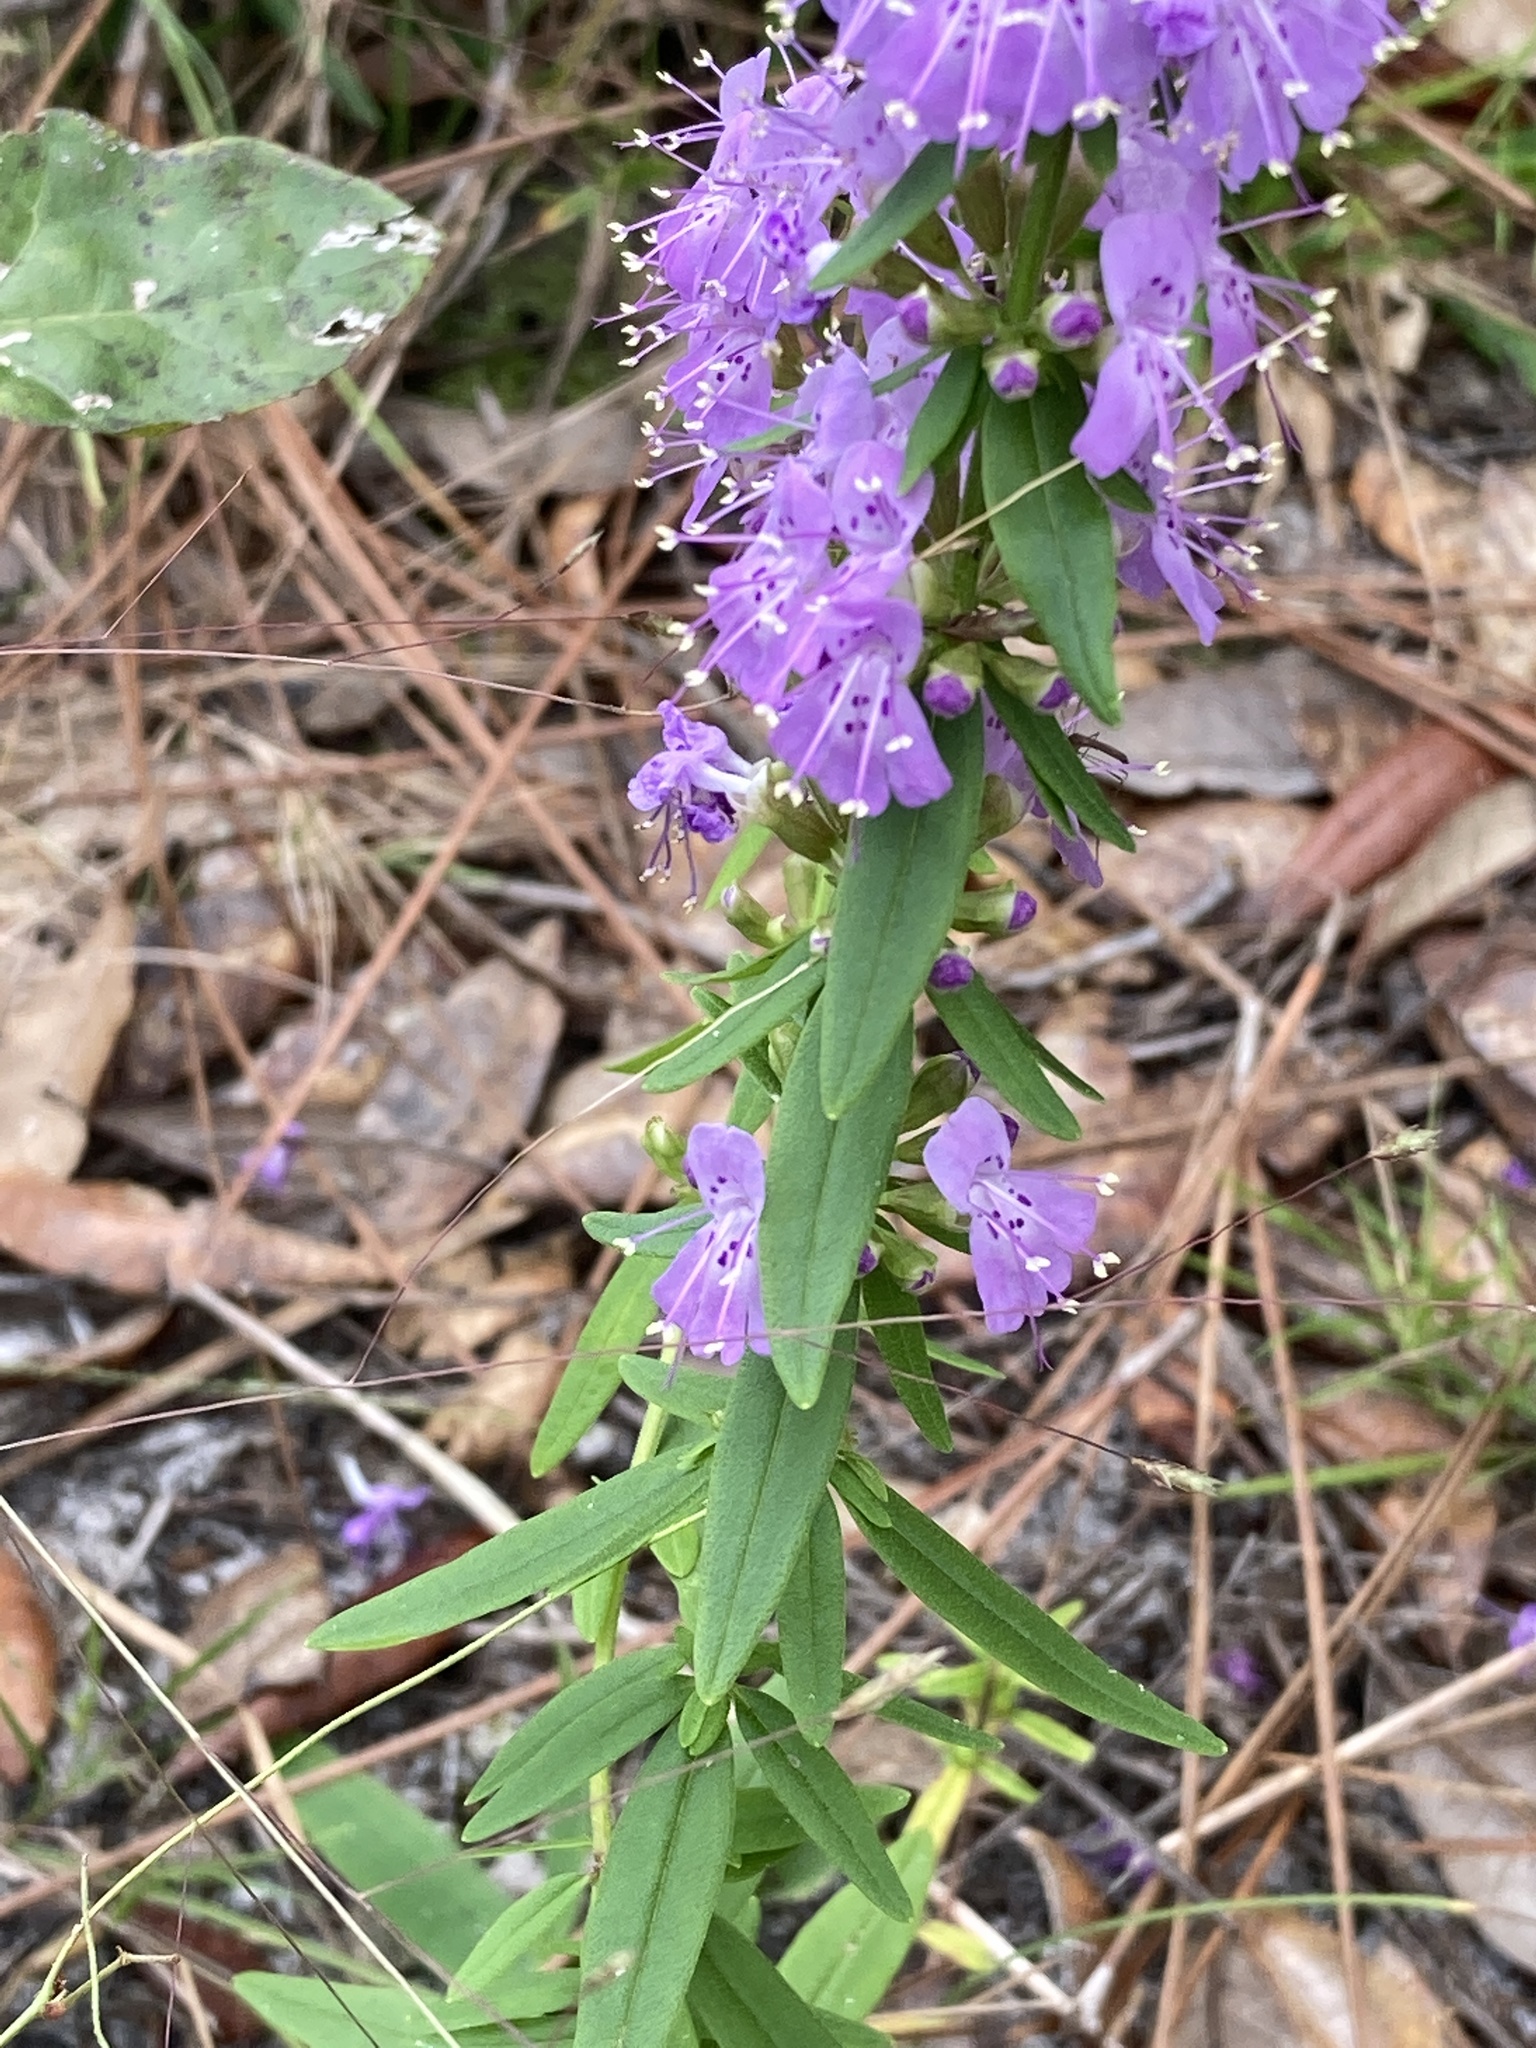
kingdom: Plantae
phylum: Tracheophyta
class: Magnoliopsida
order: Lamiales
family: Lamiaceae
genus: Dicerandra
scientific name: Dicerandra densiflora
